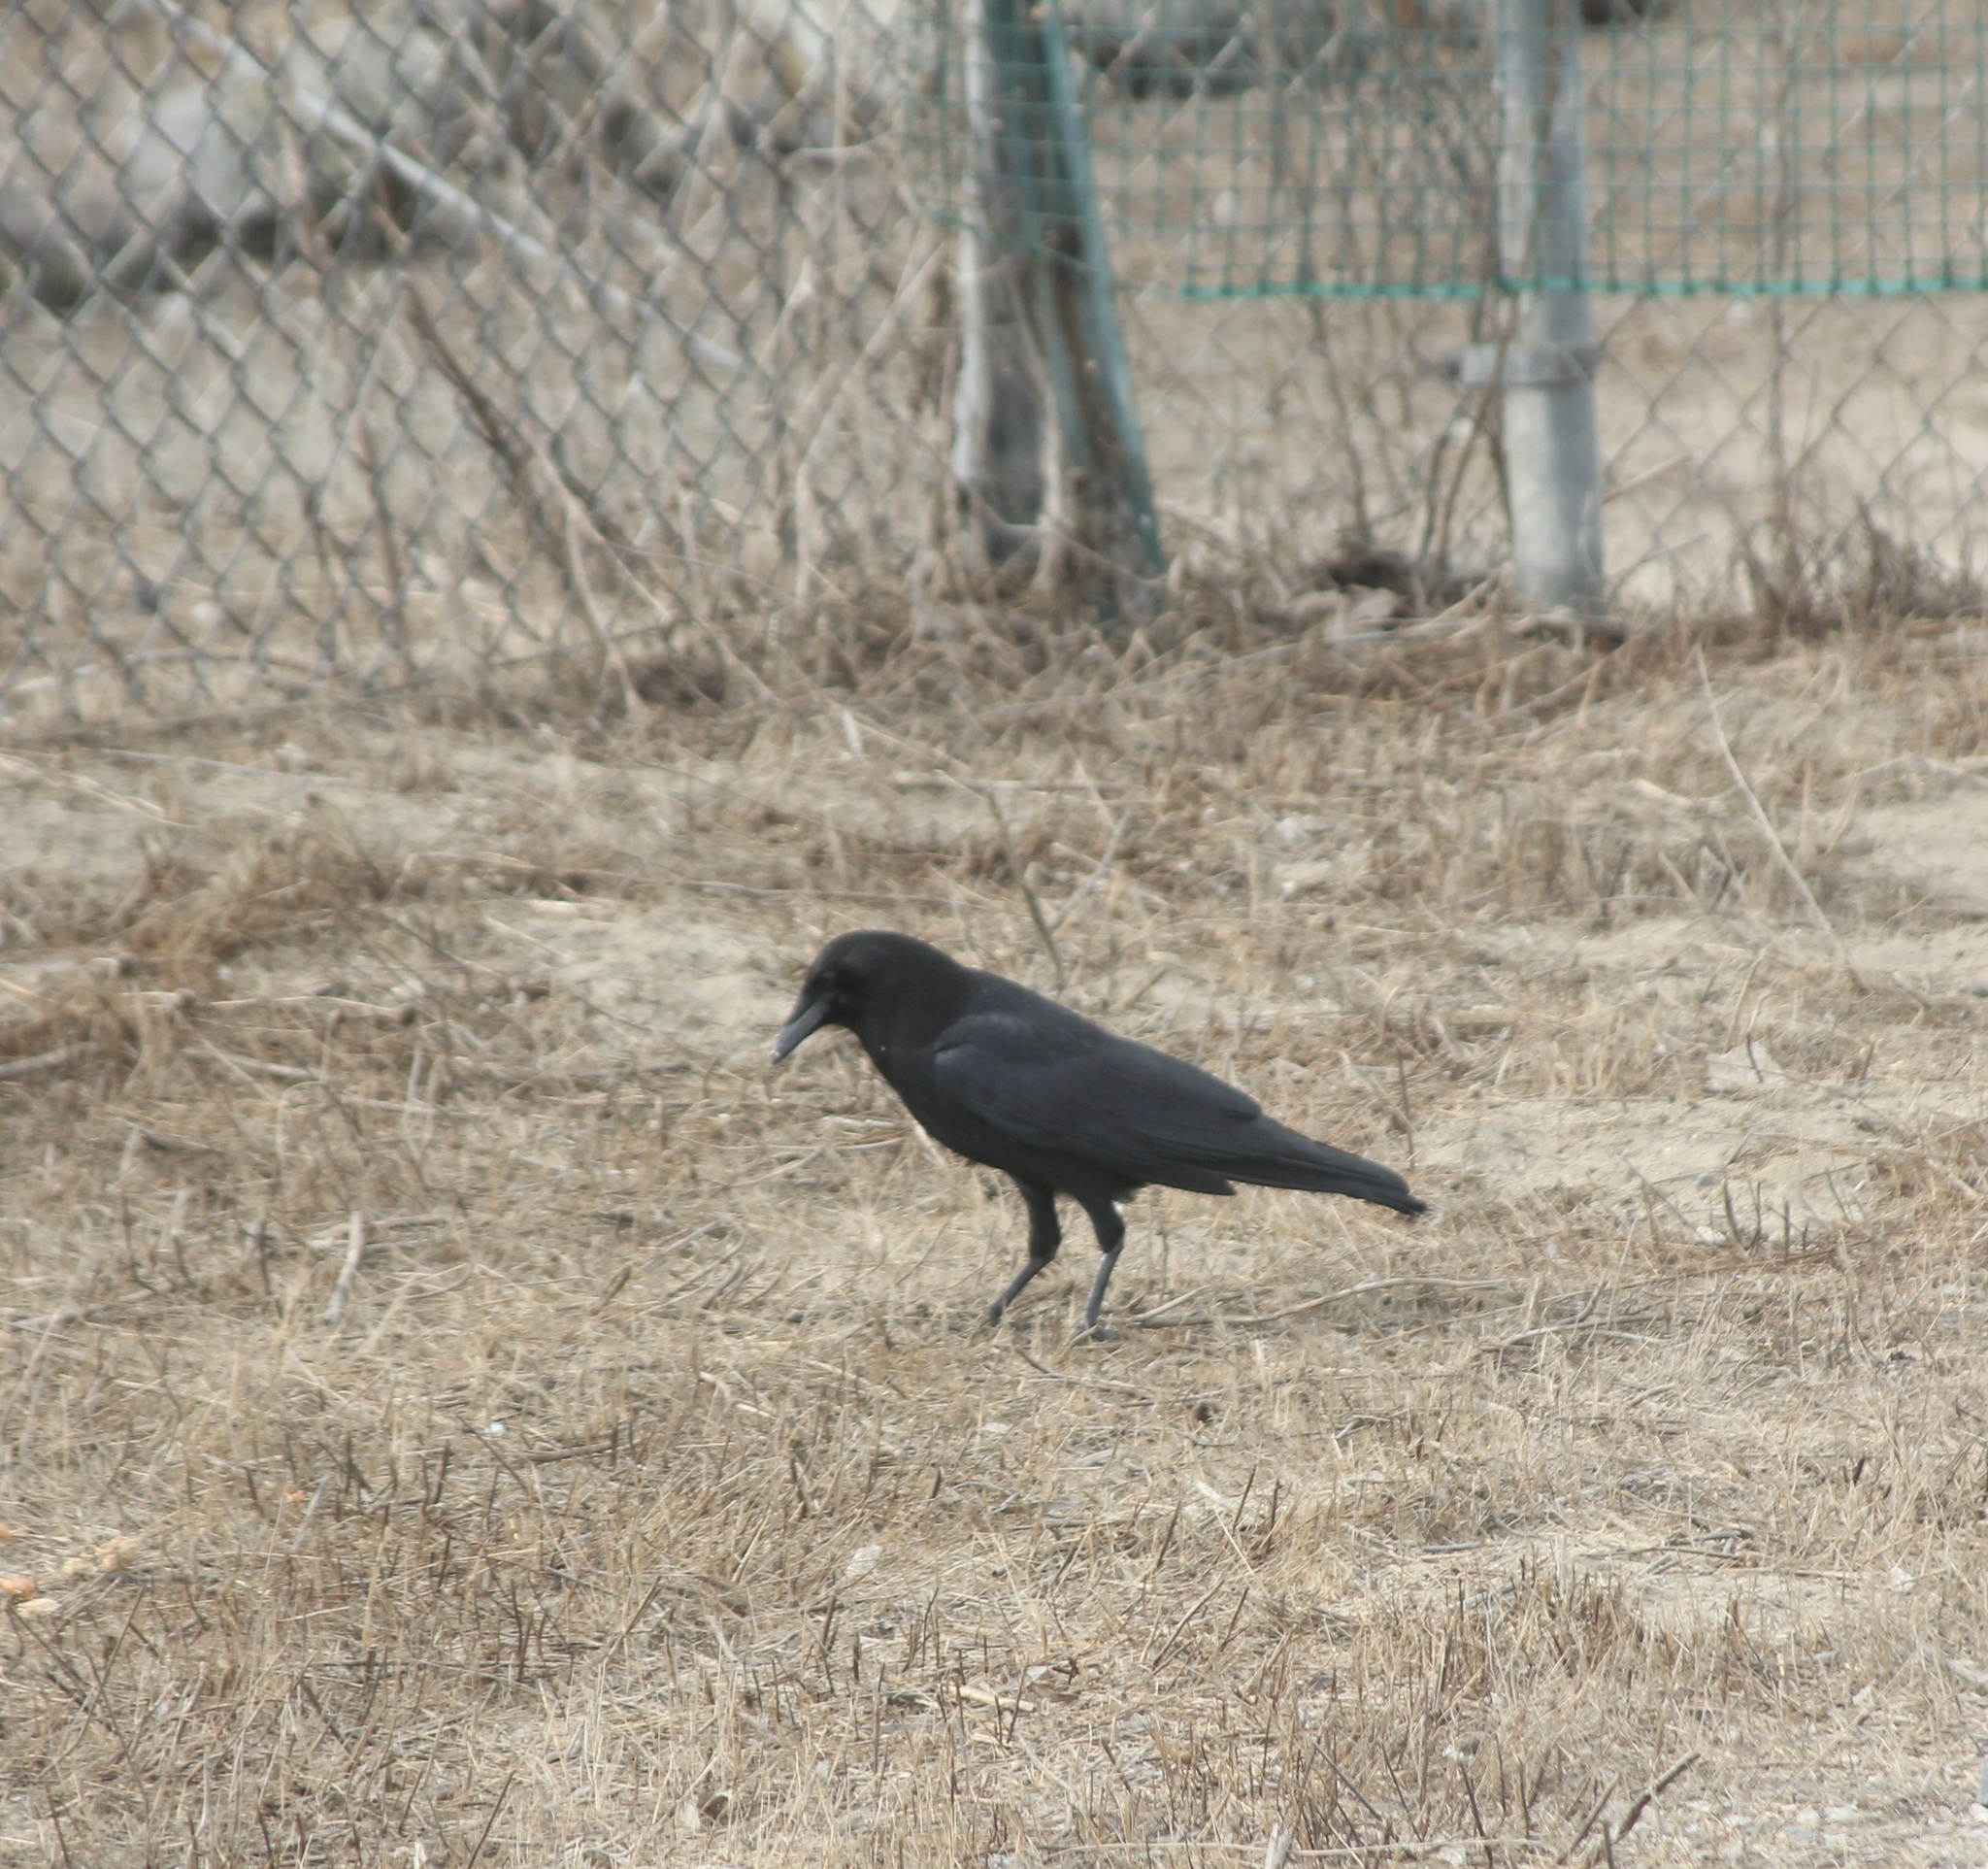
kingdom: Animalia
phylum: Chordata
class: Aves
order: Passeriformes
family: Corvidae
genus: Corvus
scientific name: Corvus brachyrhynchos
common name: American crow
